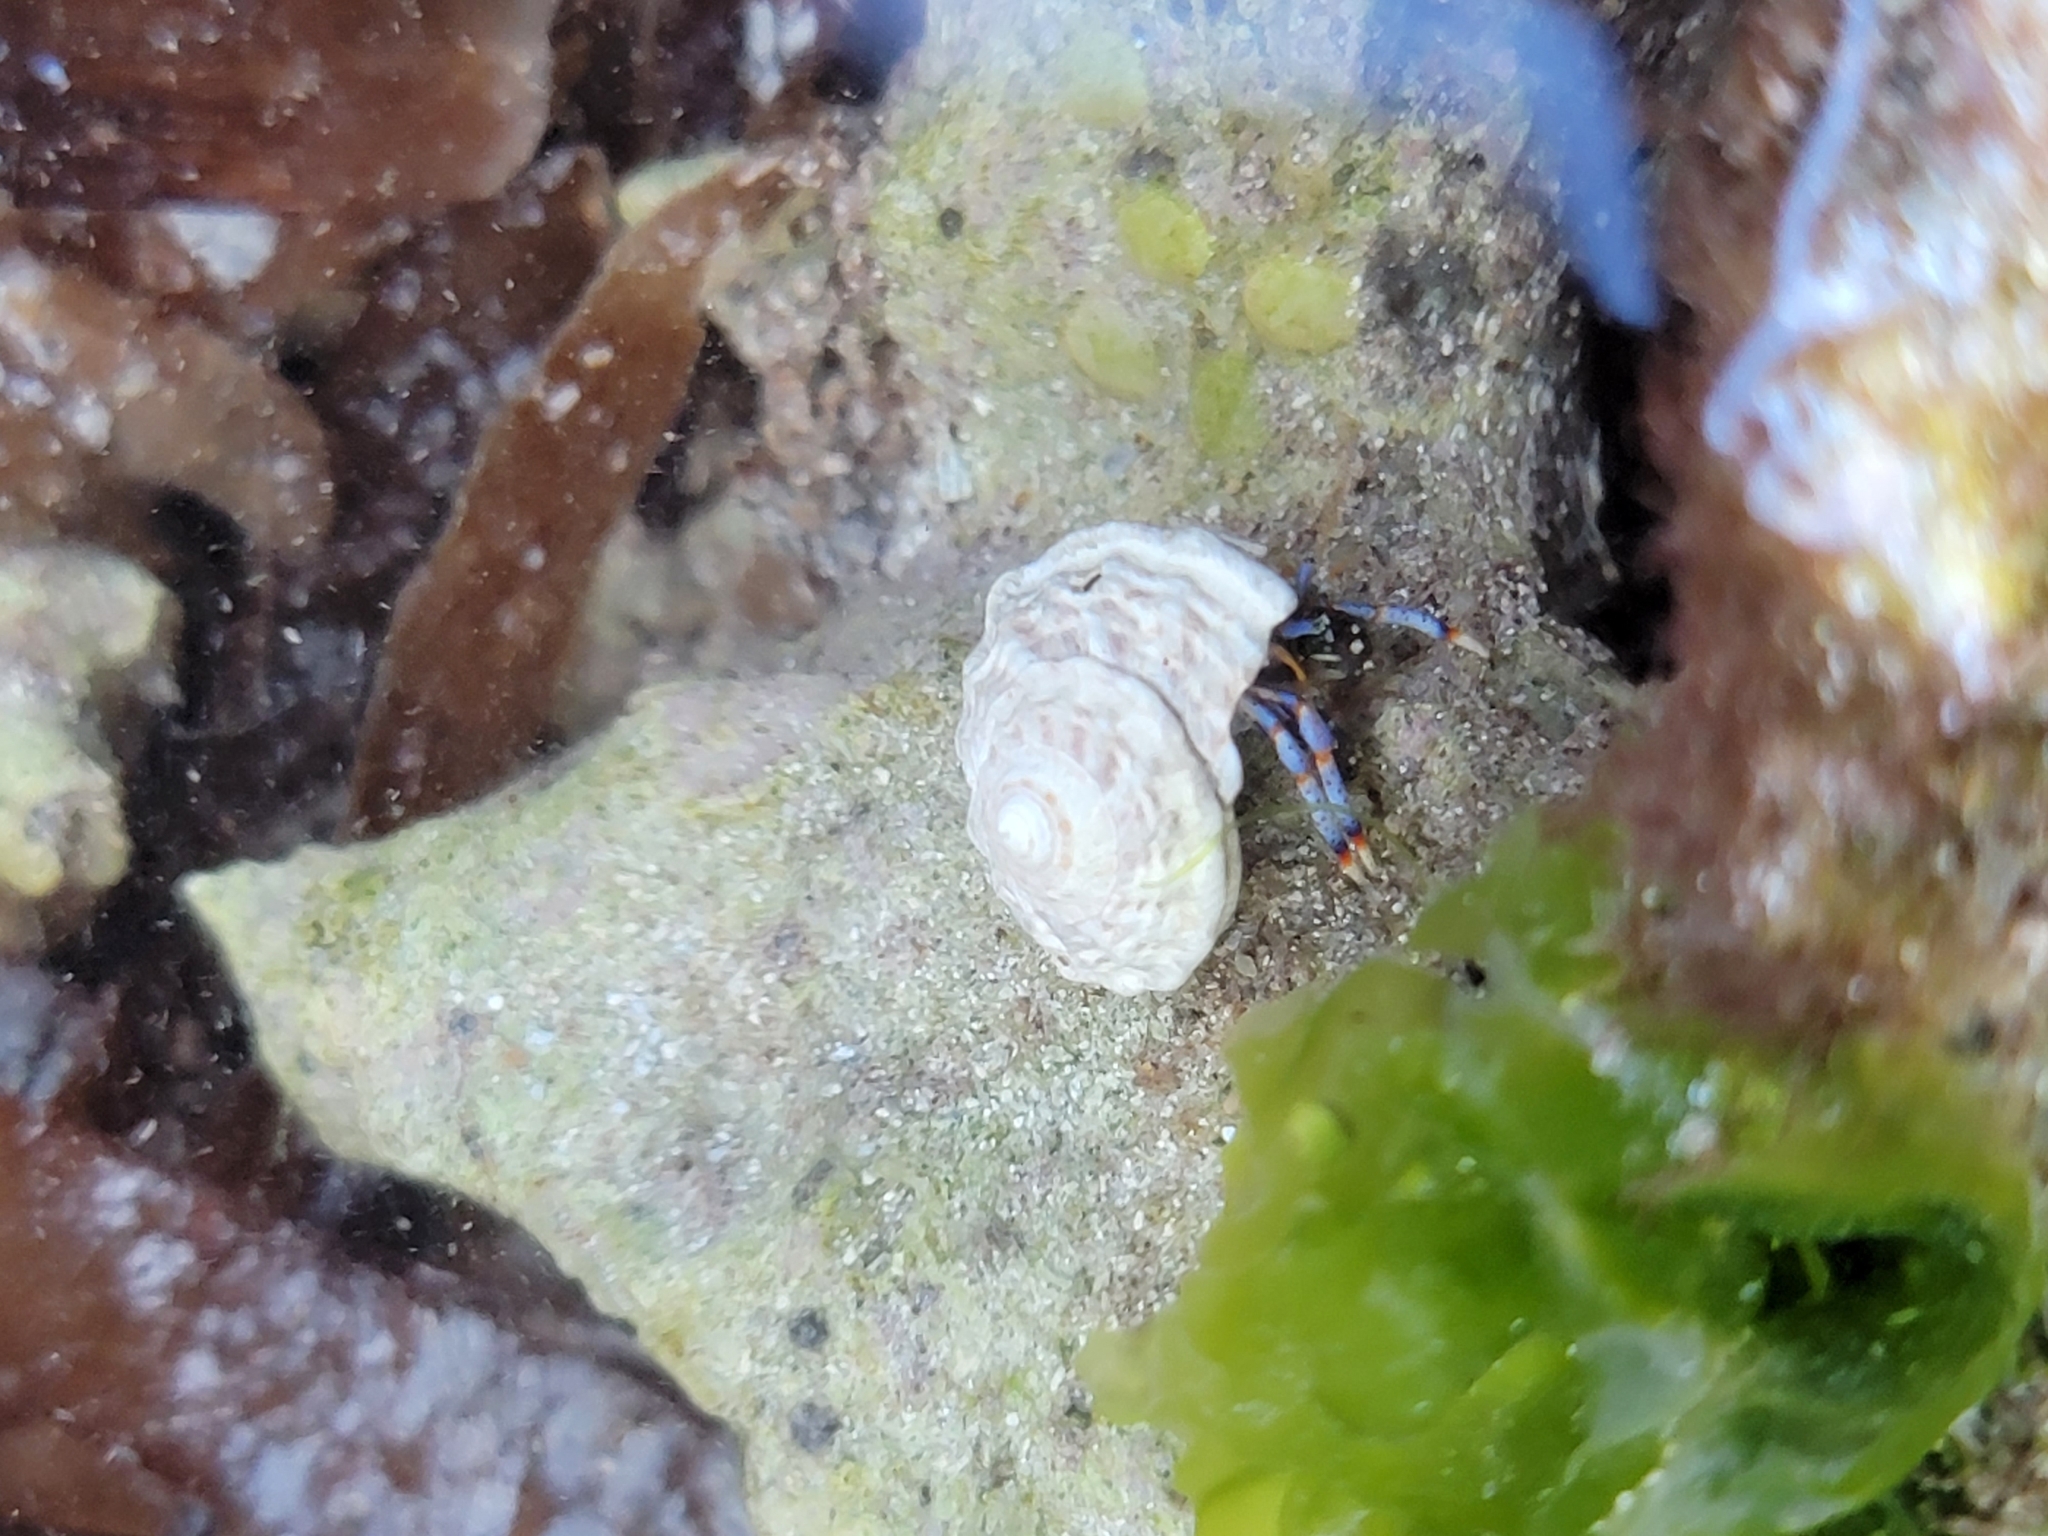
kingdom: Animalia
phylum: Arthropoda
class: Malacostraca
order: Decapoda
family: Diogenidae
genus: Clibanarius
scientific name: Clibanarius tricolor
